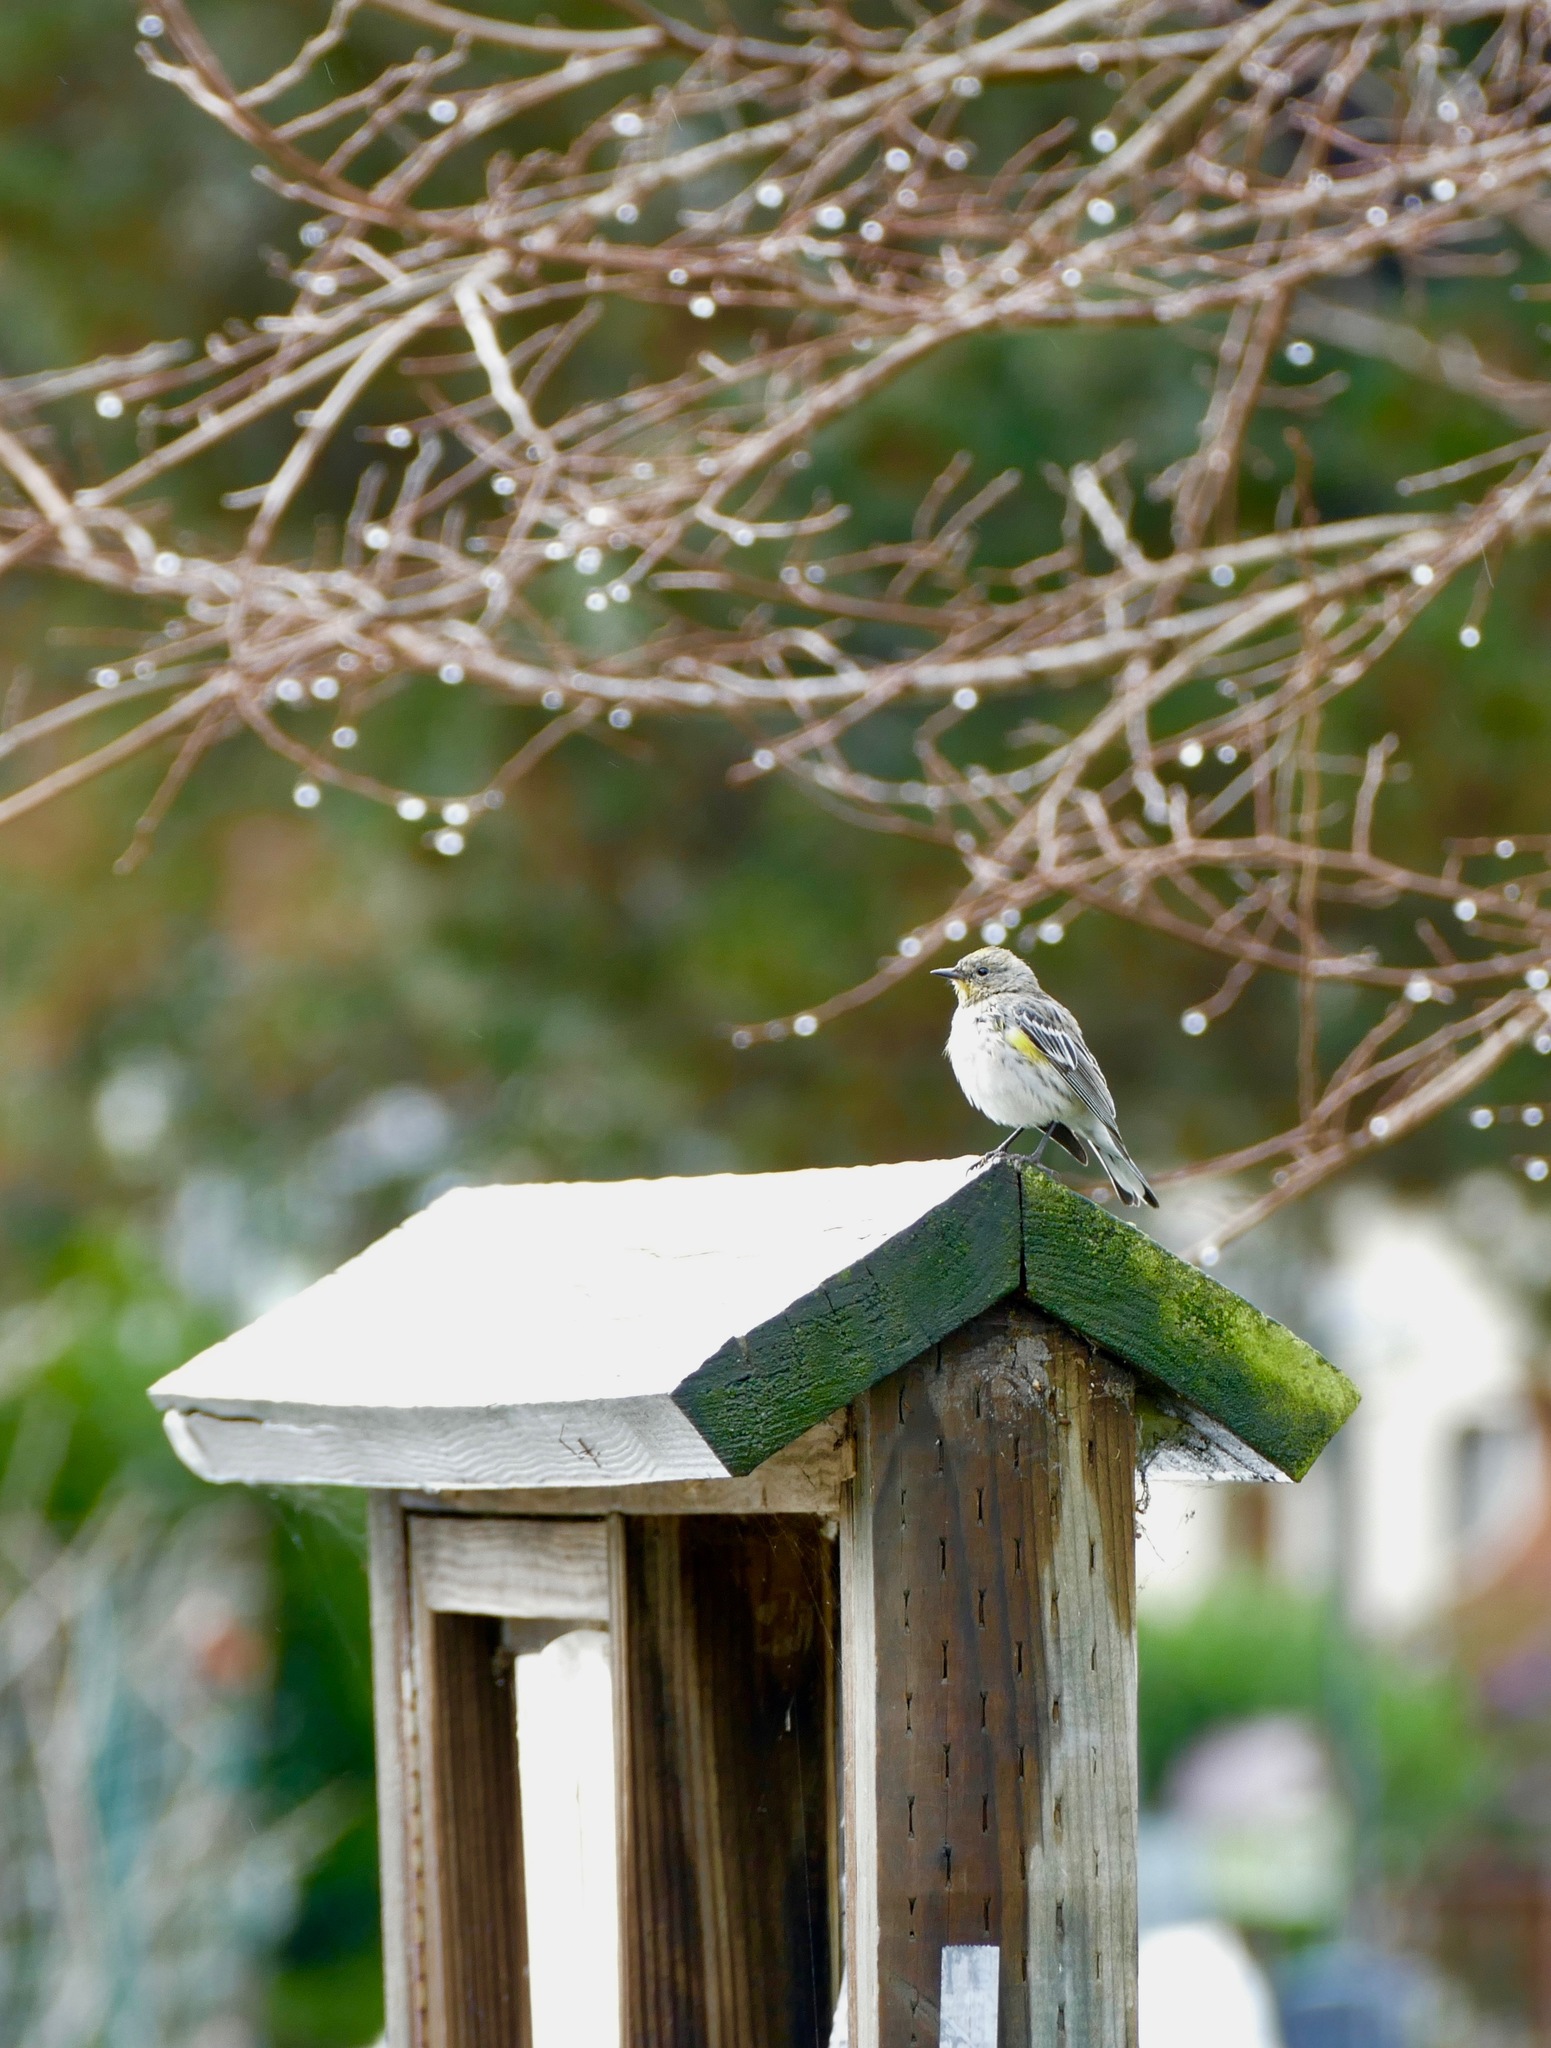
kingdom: Animalia
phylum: Chordata
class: Aves
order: Passeriformes
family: Parulidae
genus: Setophaga
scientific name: Setophaga coronata
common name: Myrtle warbler
